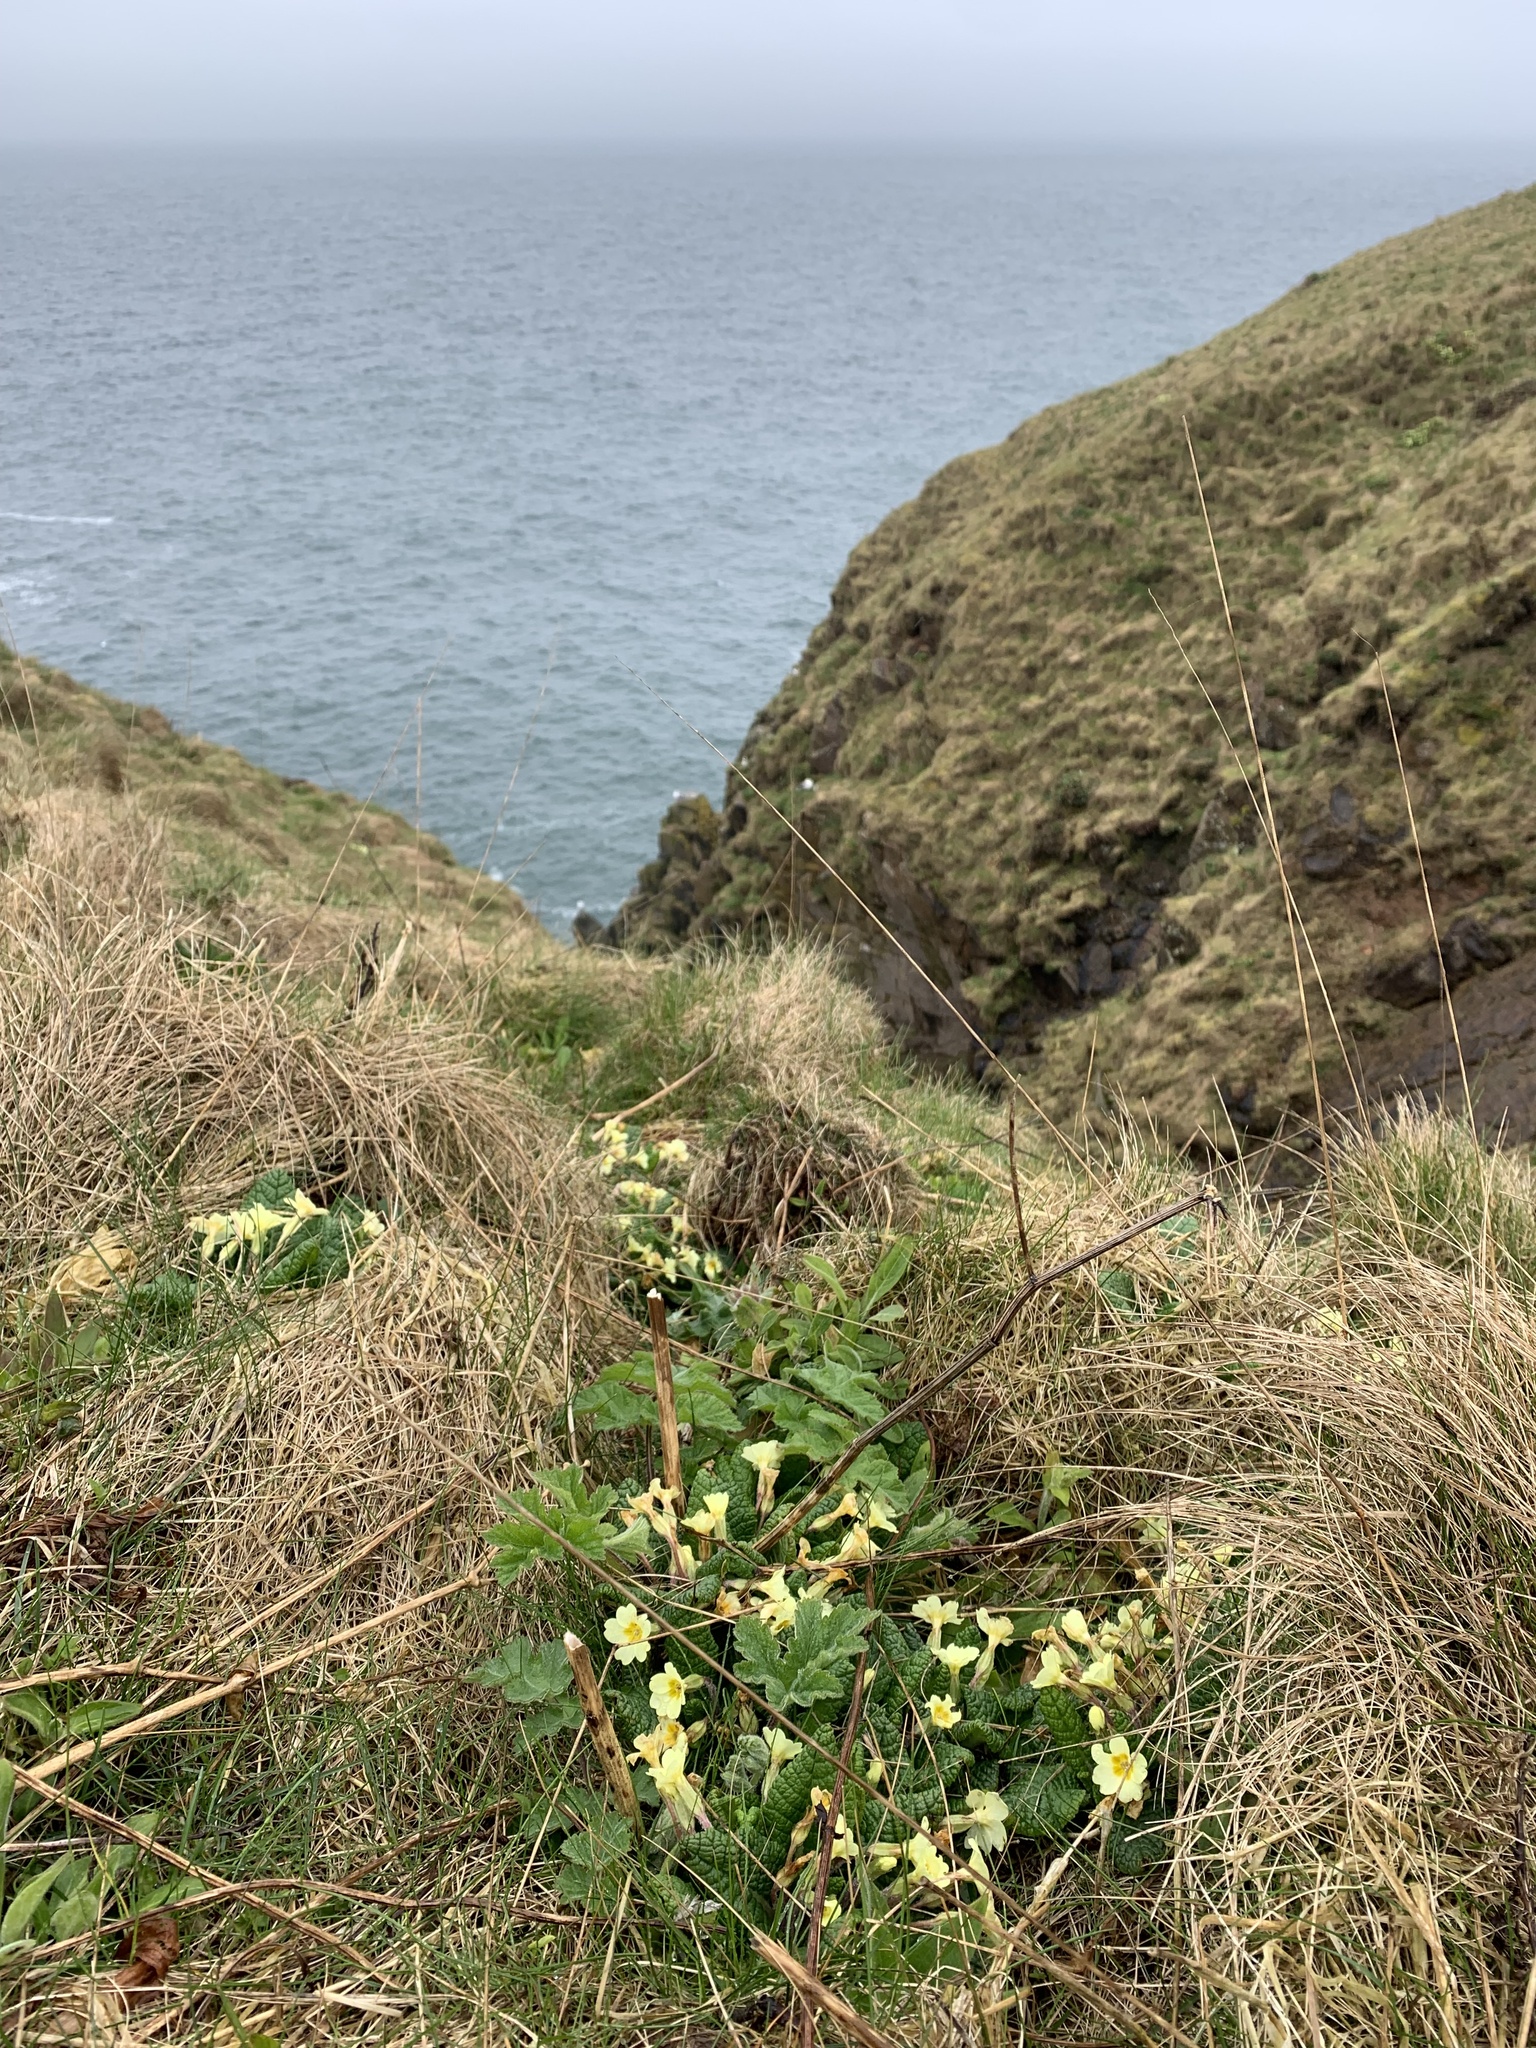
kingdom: Plantae
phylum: Tracheophyta
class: Magnoliopsida
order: Ericales
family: Primulaceae
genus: Primula
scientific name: Primula vulgaris
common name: Primrose
